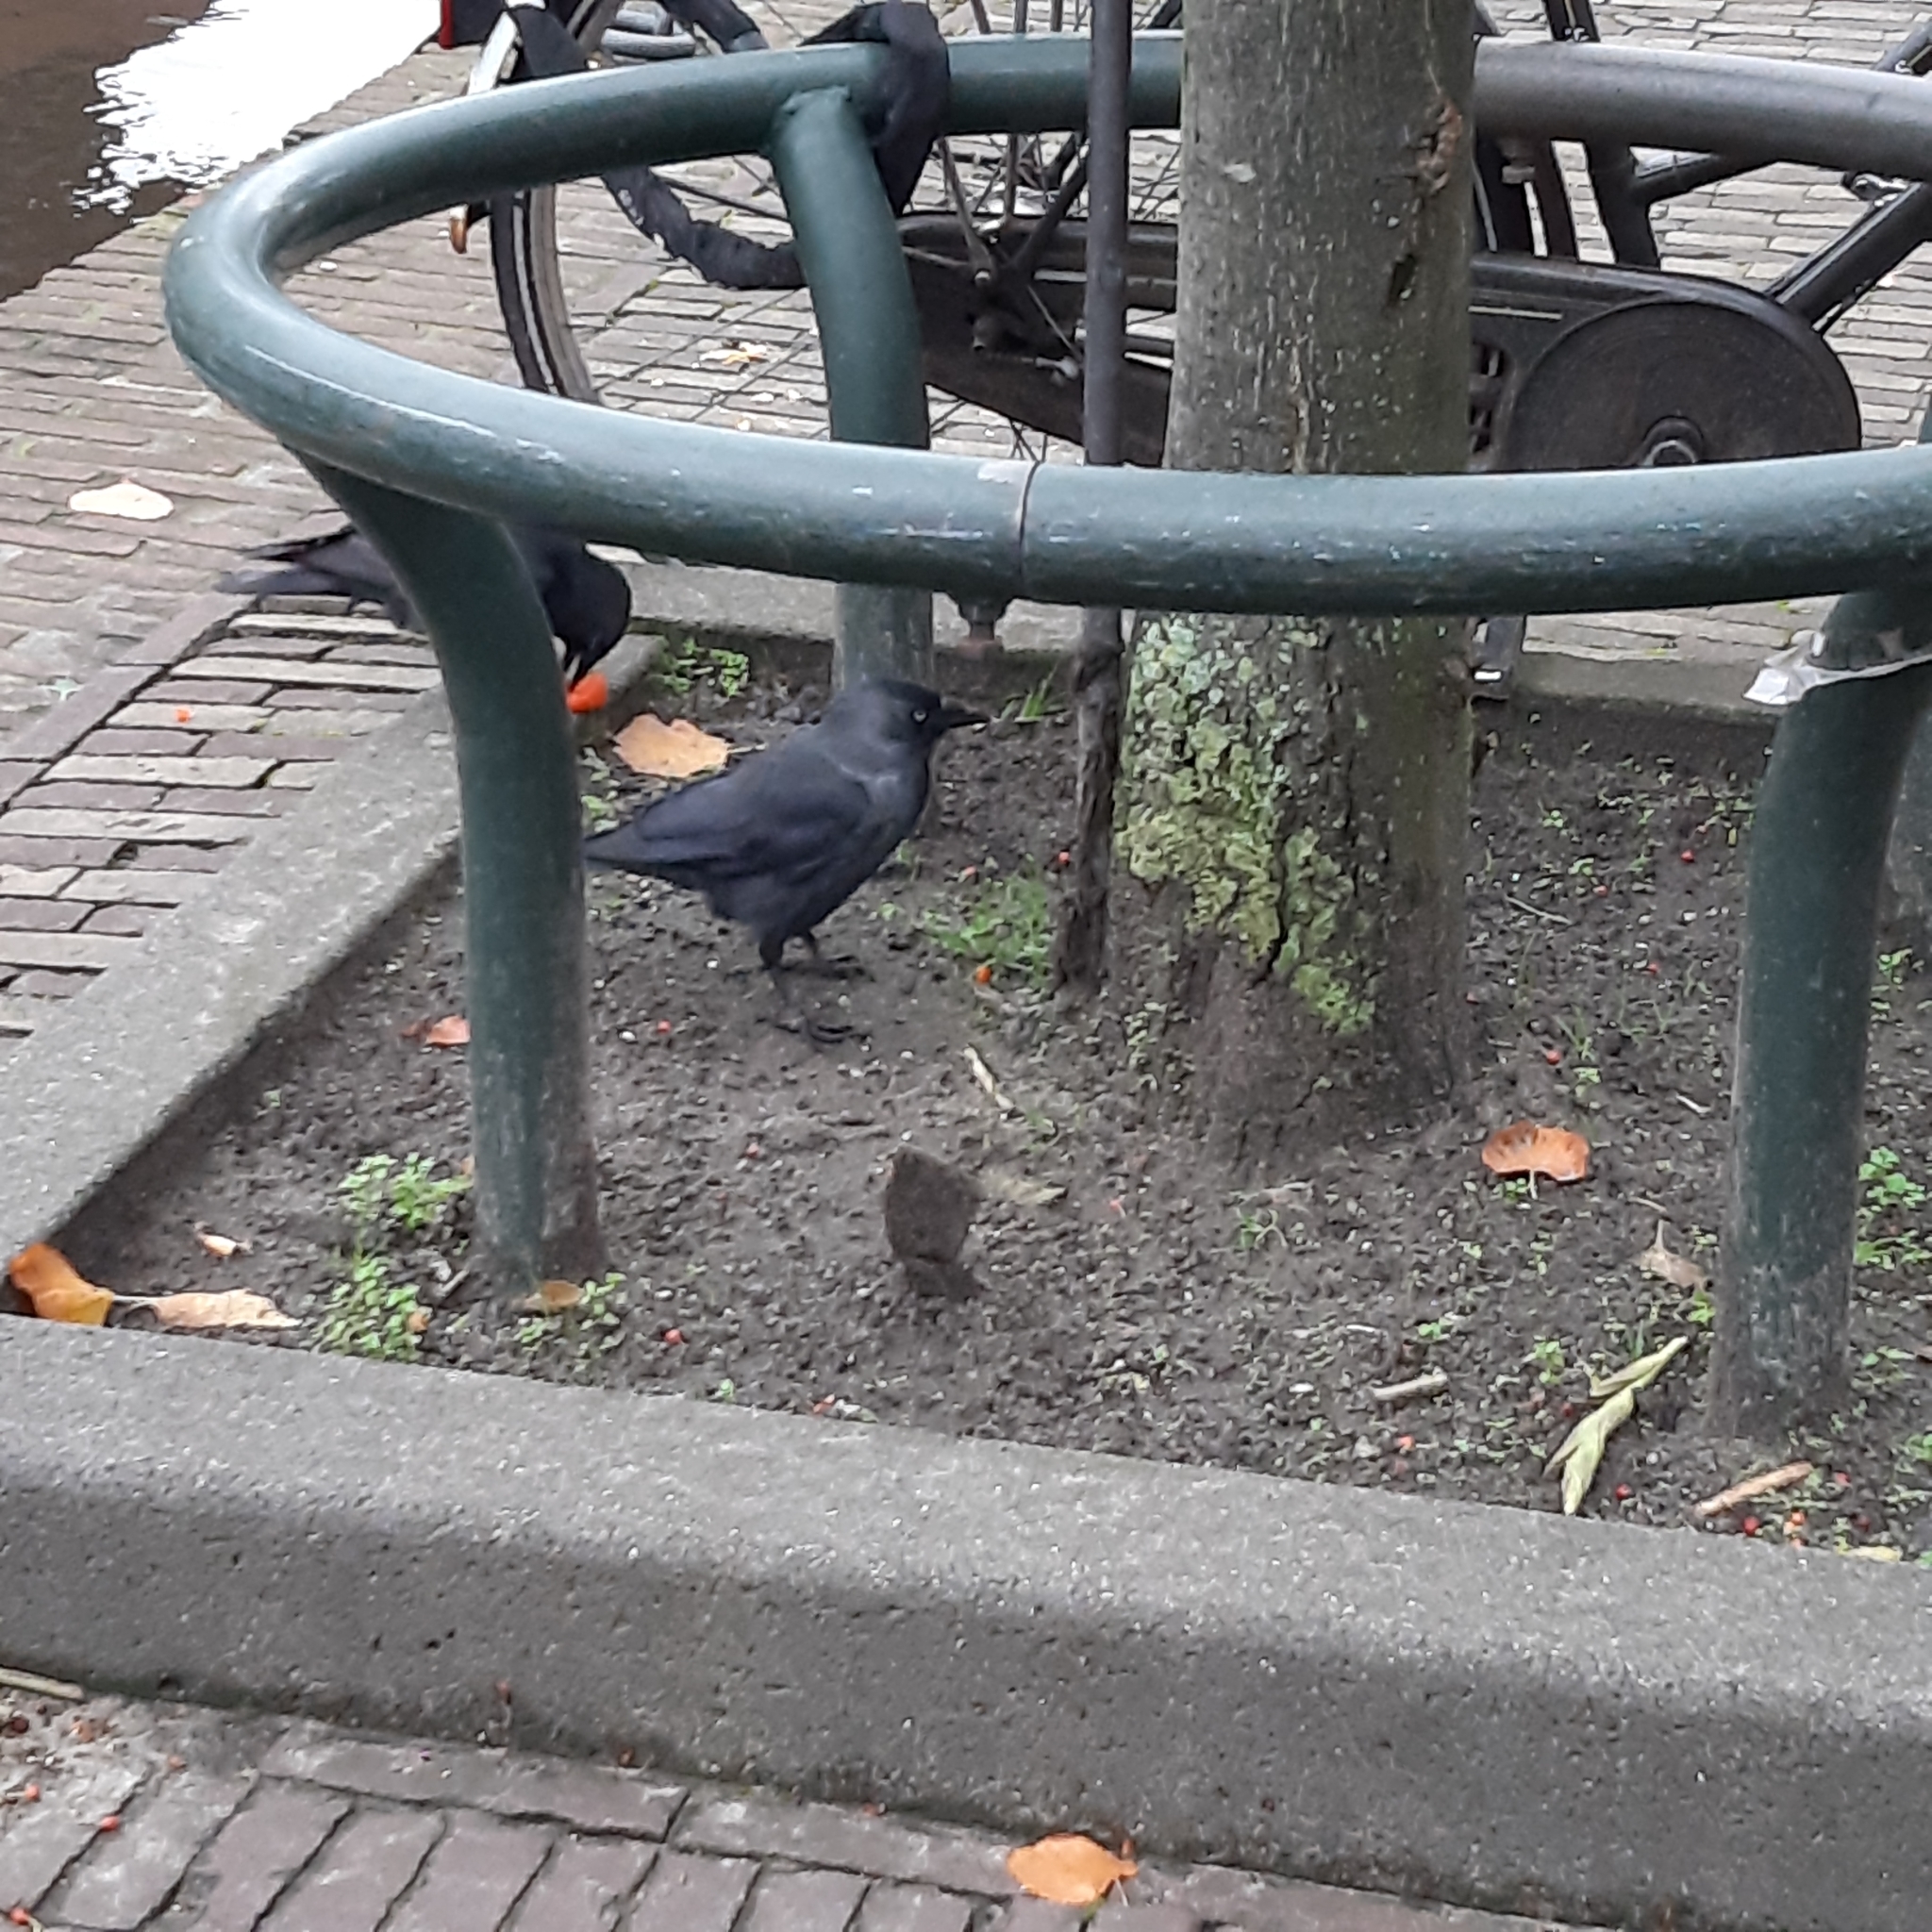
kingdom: Animalia
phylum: Chordata
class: Aves
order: Passeriformes
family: Corvidae
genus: Coloeus
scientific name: Coloeus monedula
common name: Western jackdaw
